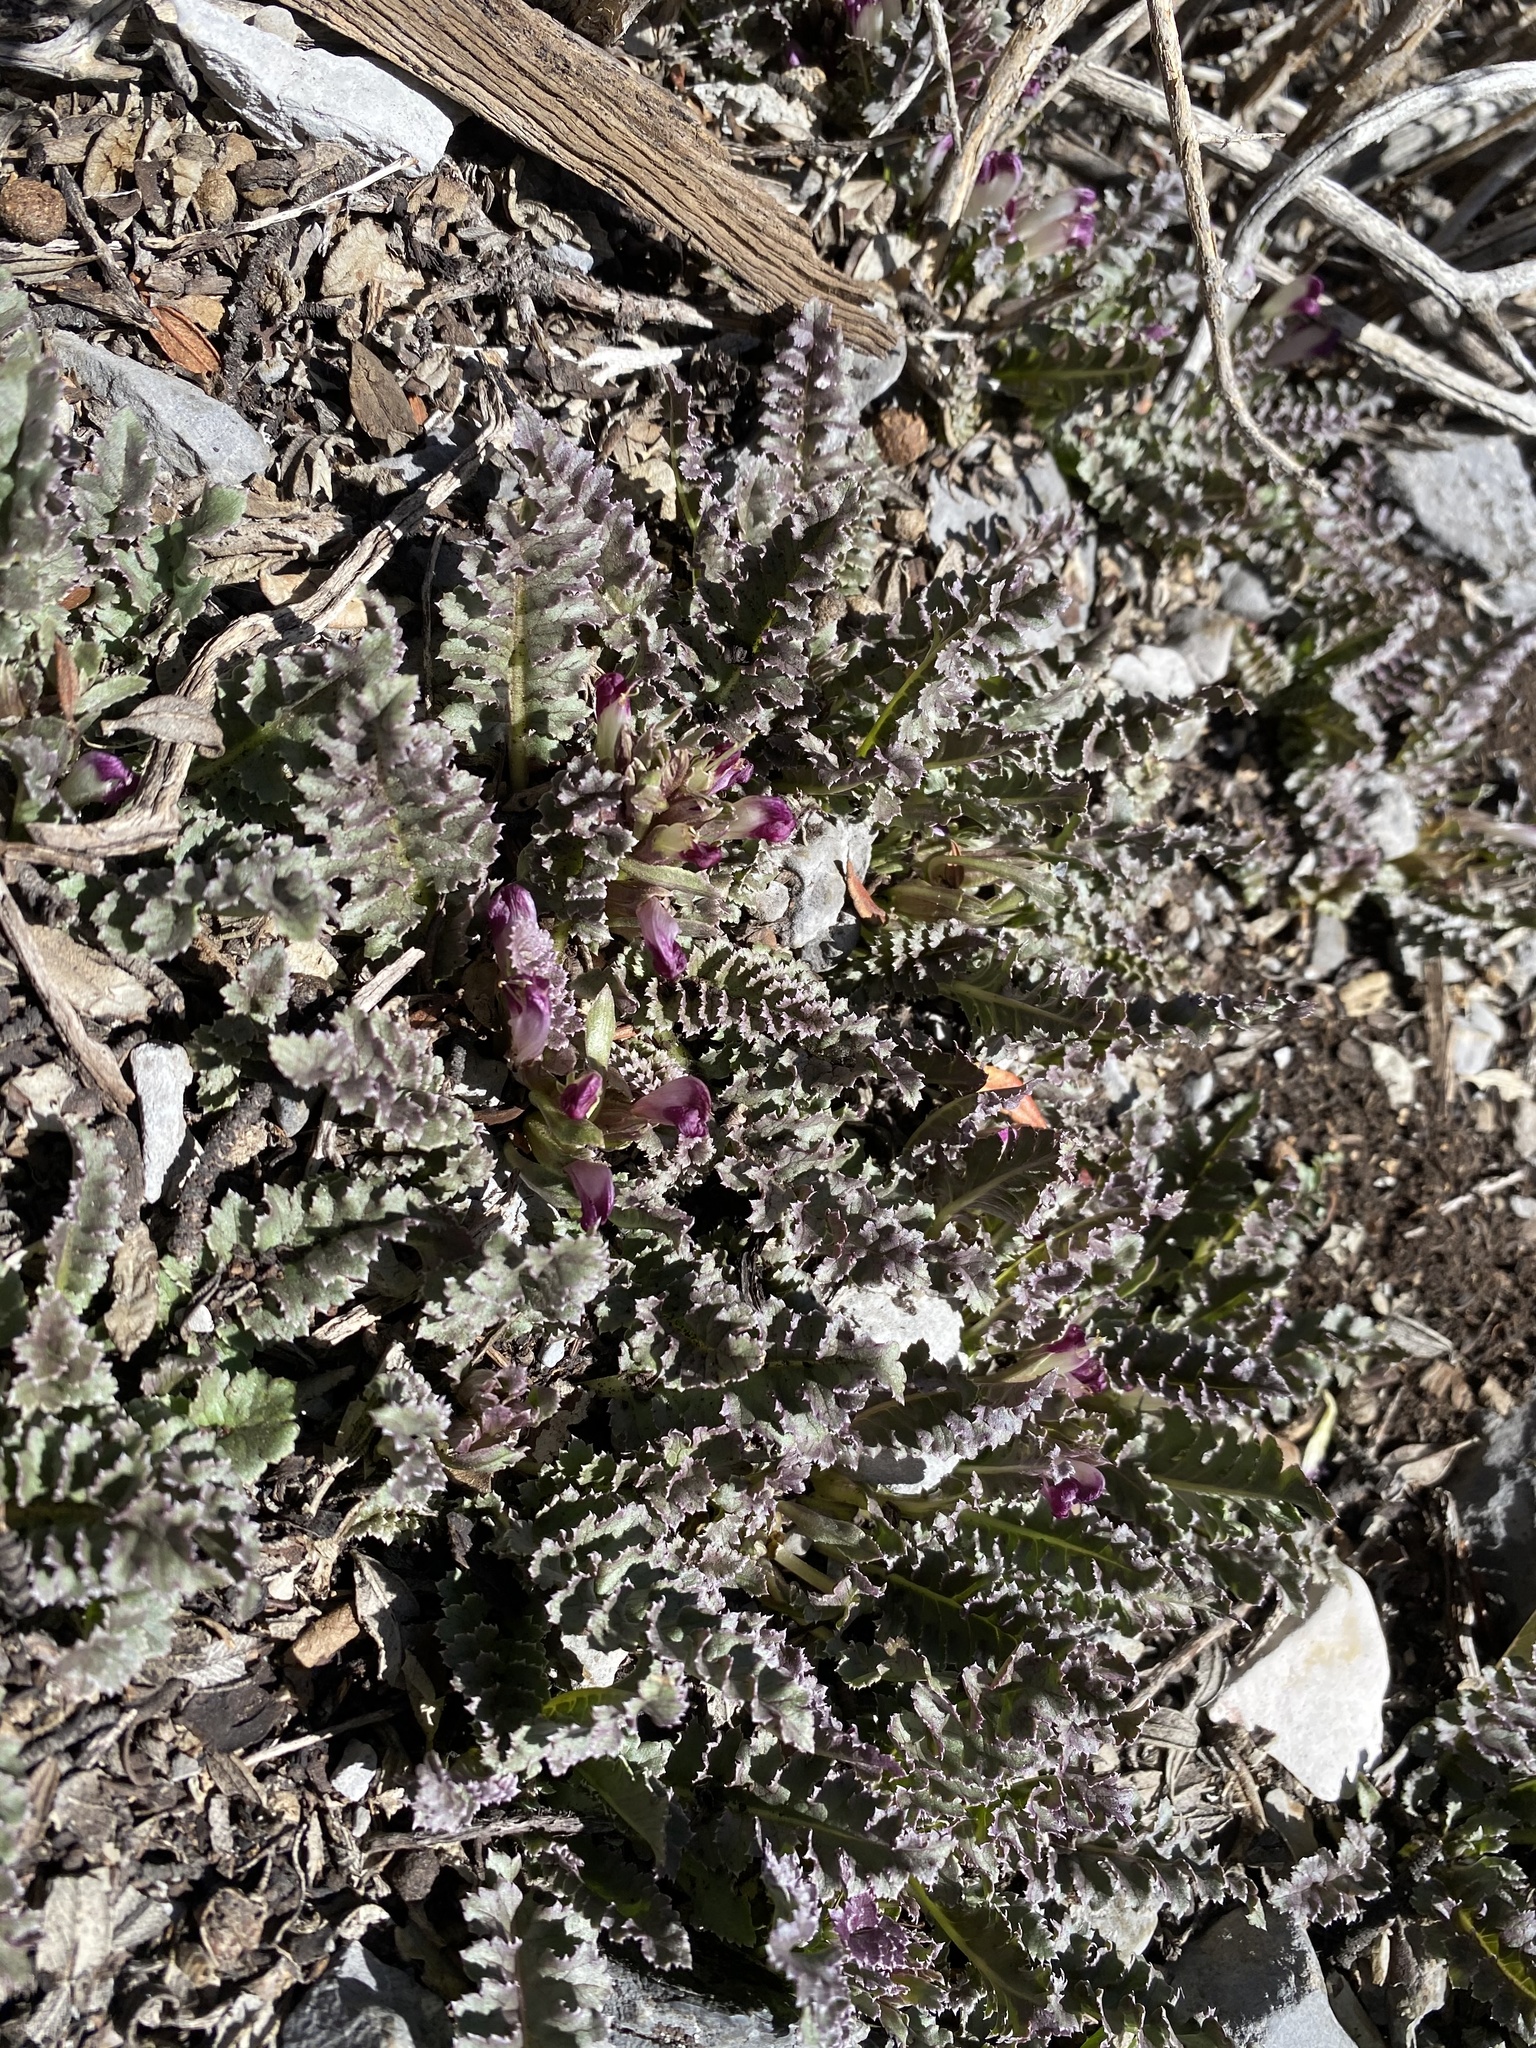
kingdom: Plantae
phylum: Tracheophyta
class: Magnoliopsida
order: Lamiales
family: Orobanchaceae
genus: Pedicularis
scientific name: Pedicularis centranthera
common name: Dwarf lousewort
